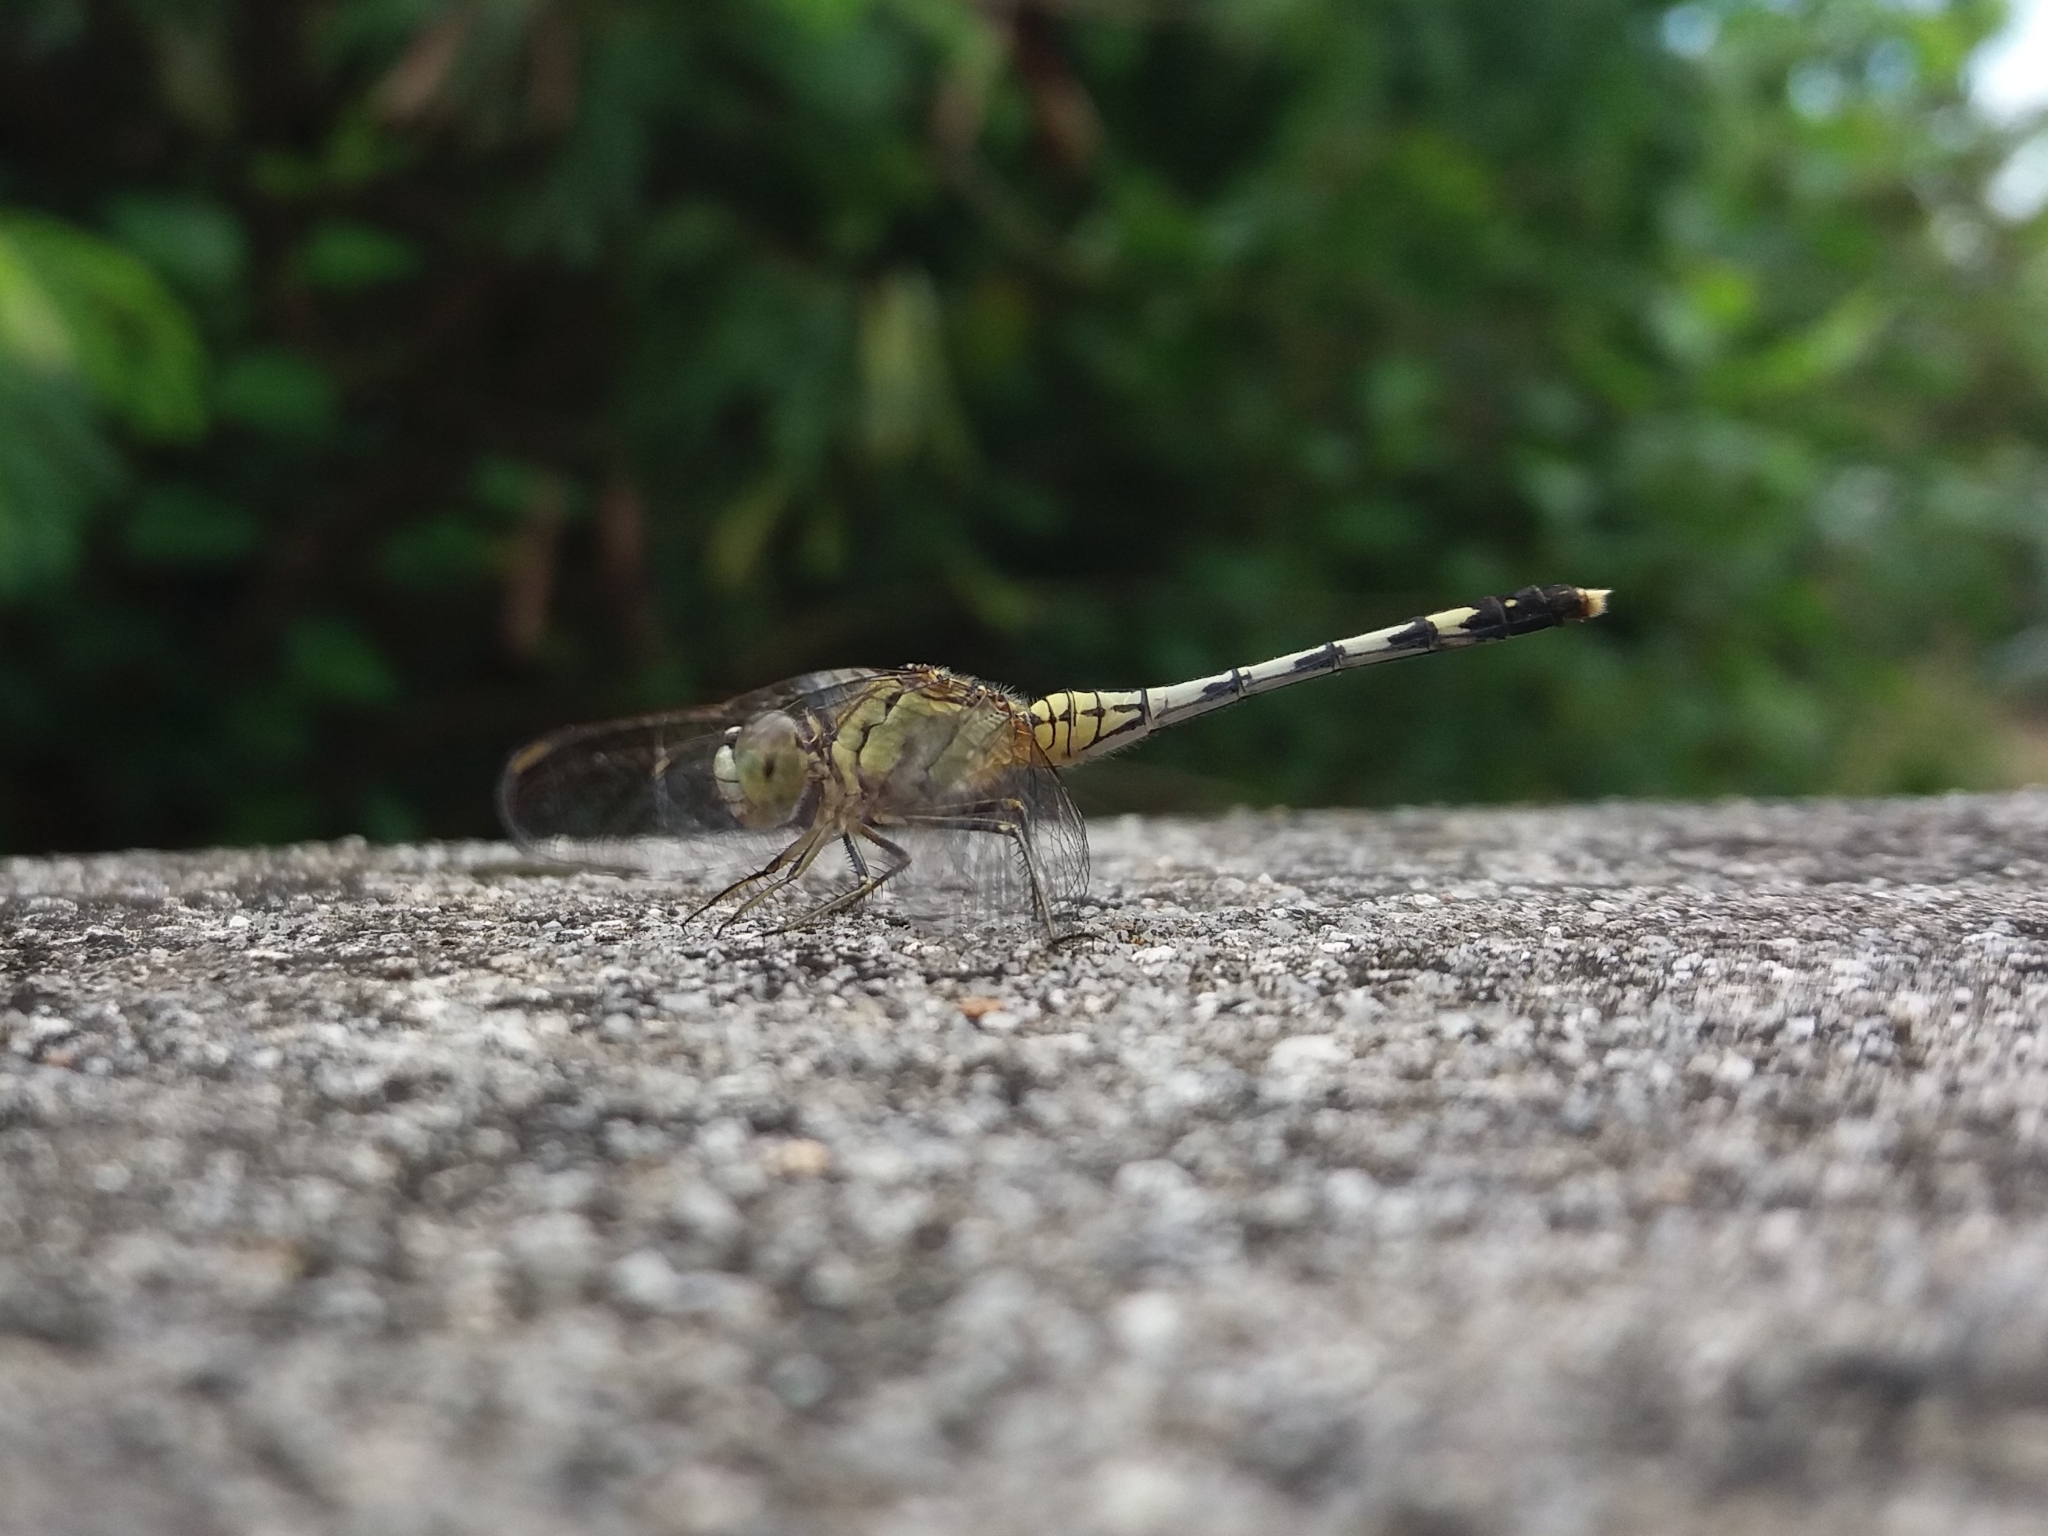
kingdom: Animalia
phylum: Arthropoda
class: Insecta
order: Odonata
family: Libellulidae
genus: Diplacodes
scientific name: Diplacodes trivialis
